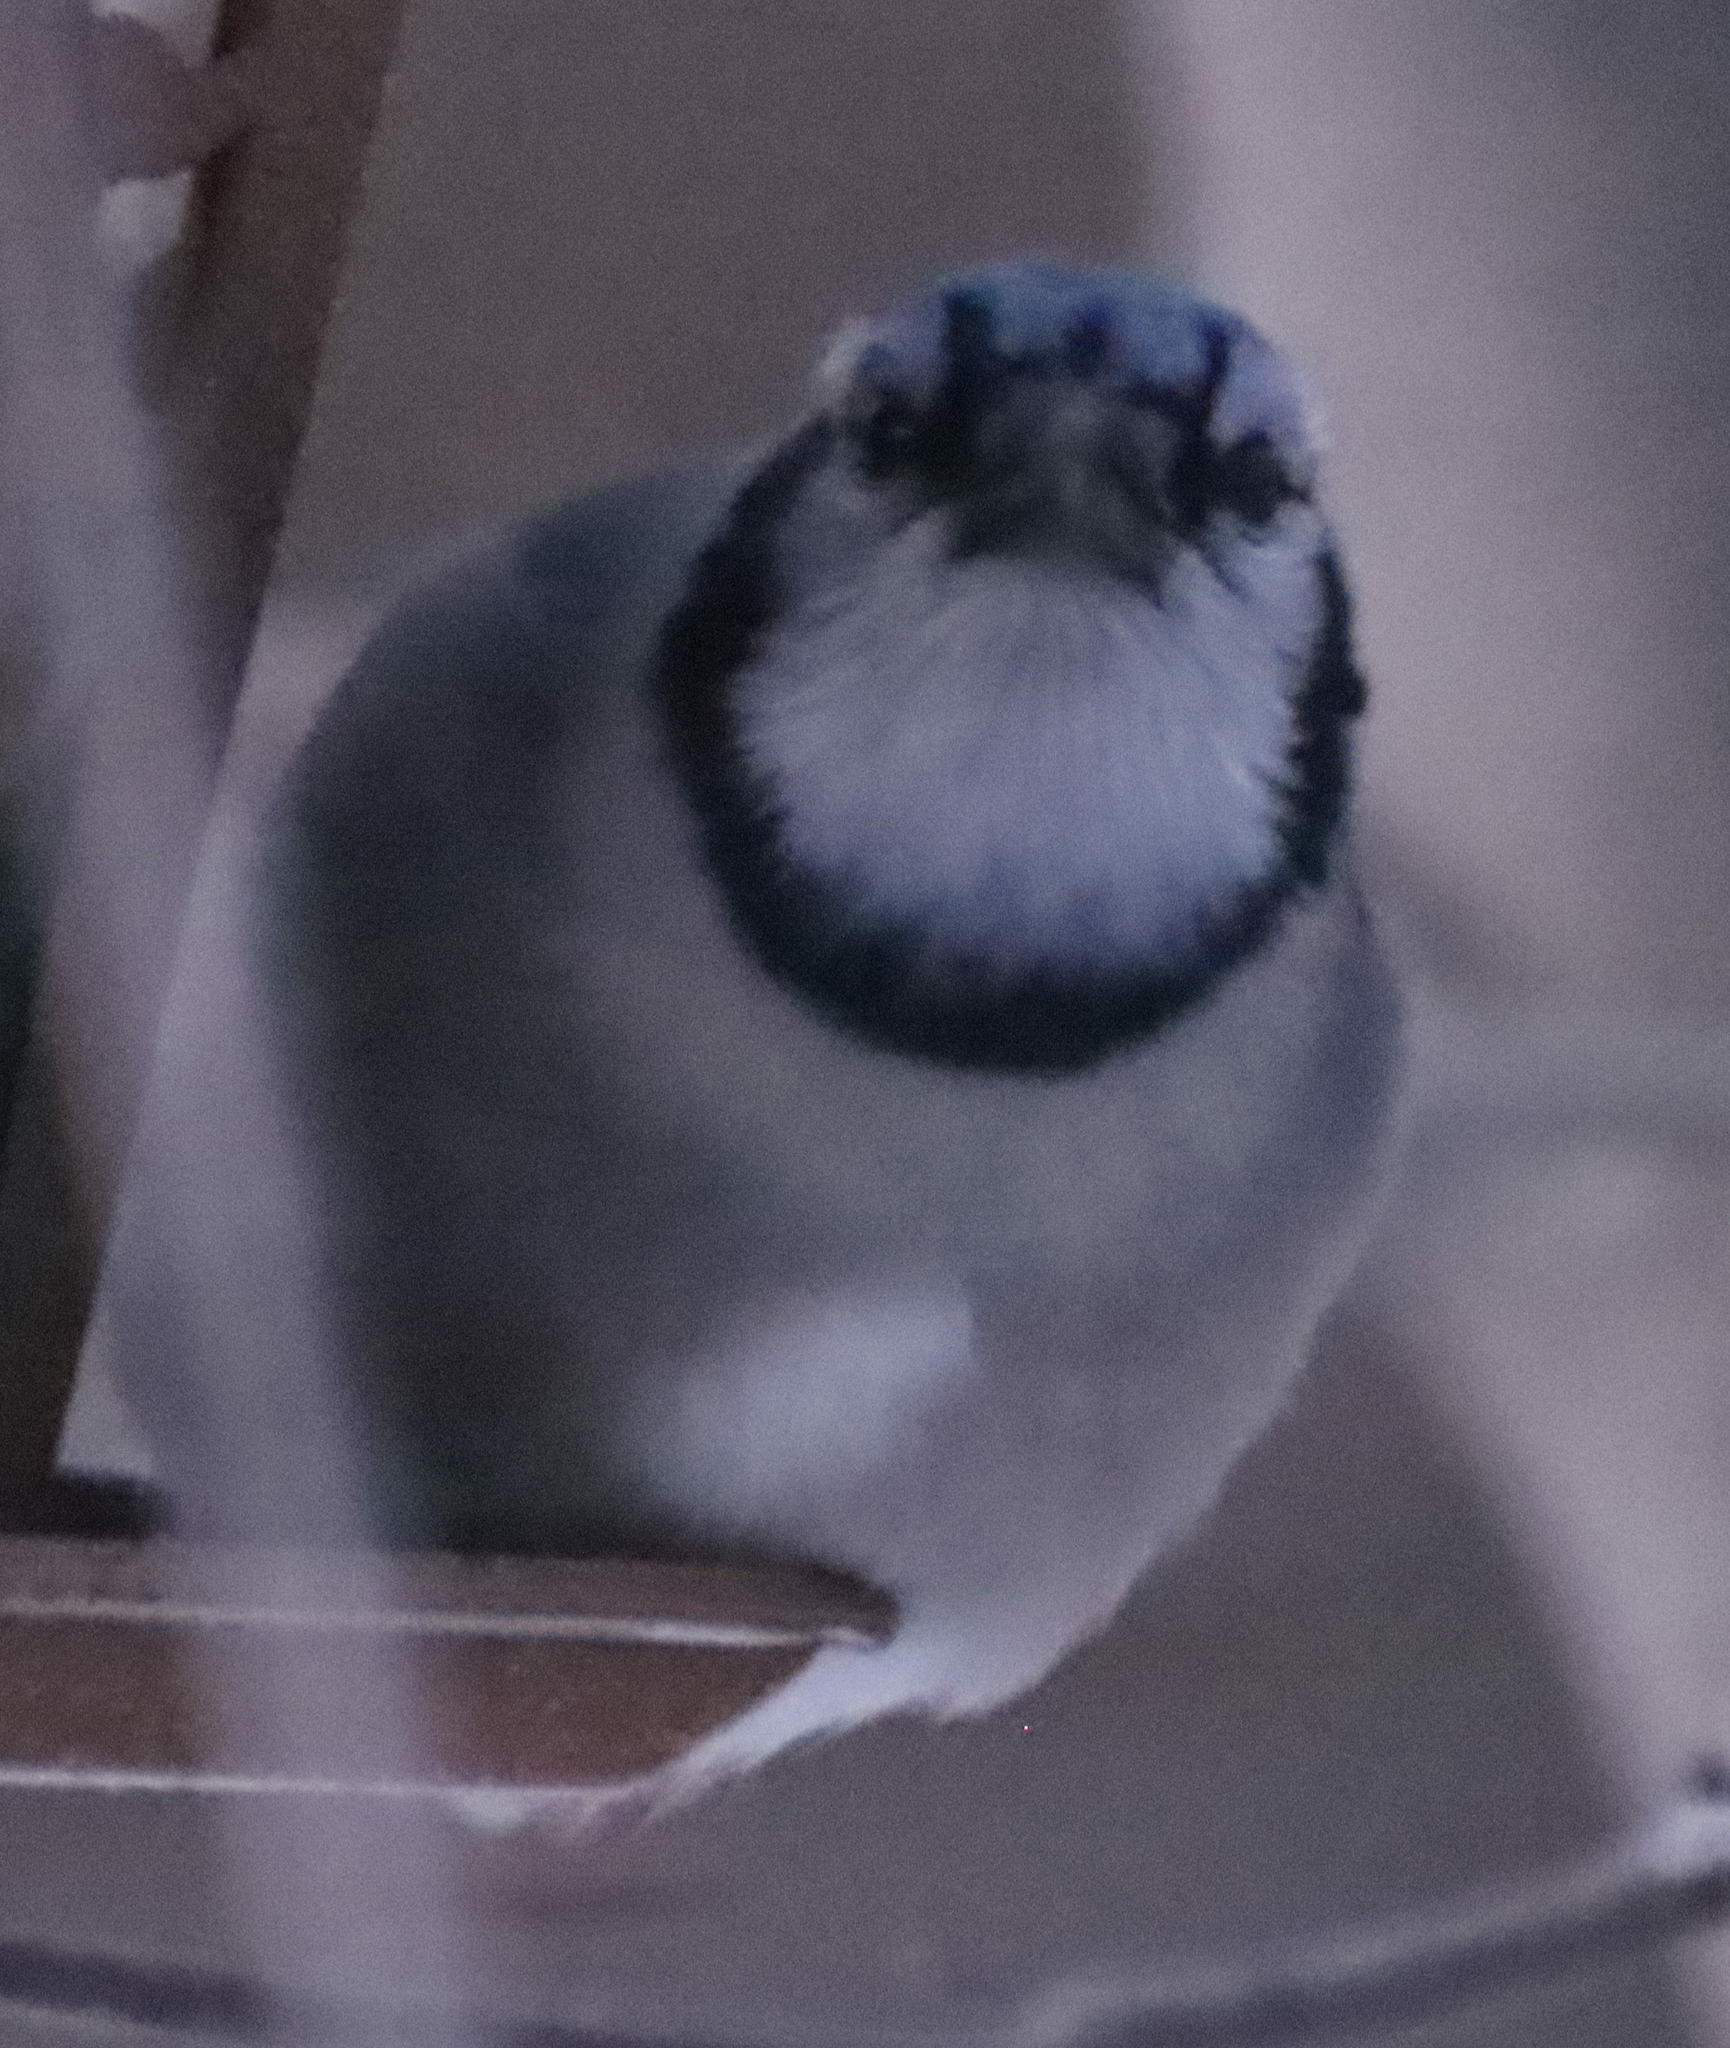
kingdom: Animalia
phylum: Chordata
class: Aves
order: Passeriformes
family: Corvidae
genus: Cyanocitta
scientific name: Cyanocitta cristata
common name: Blue jay
